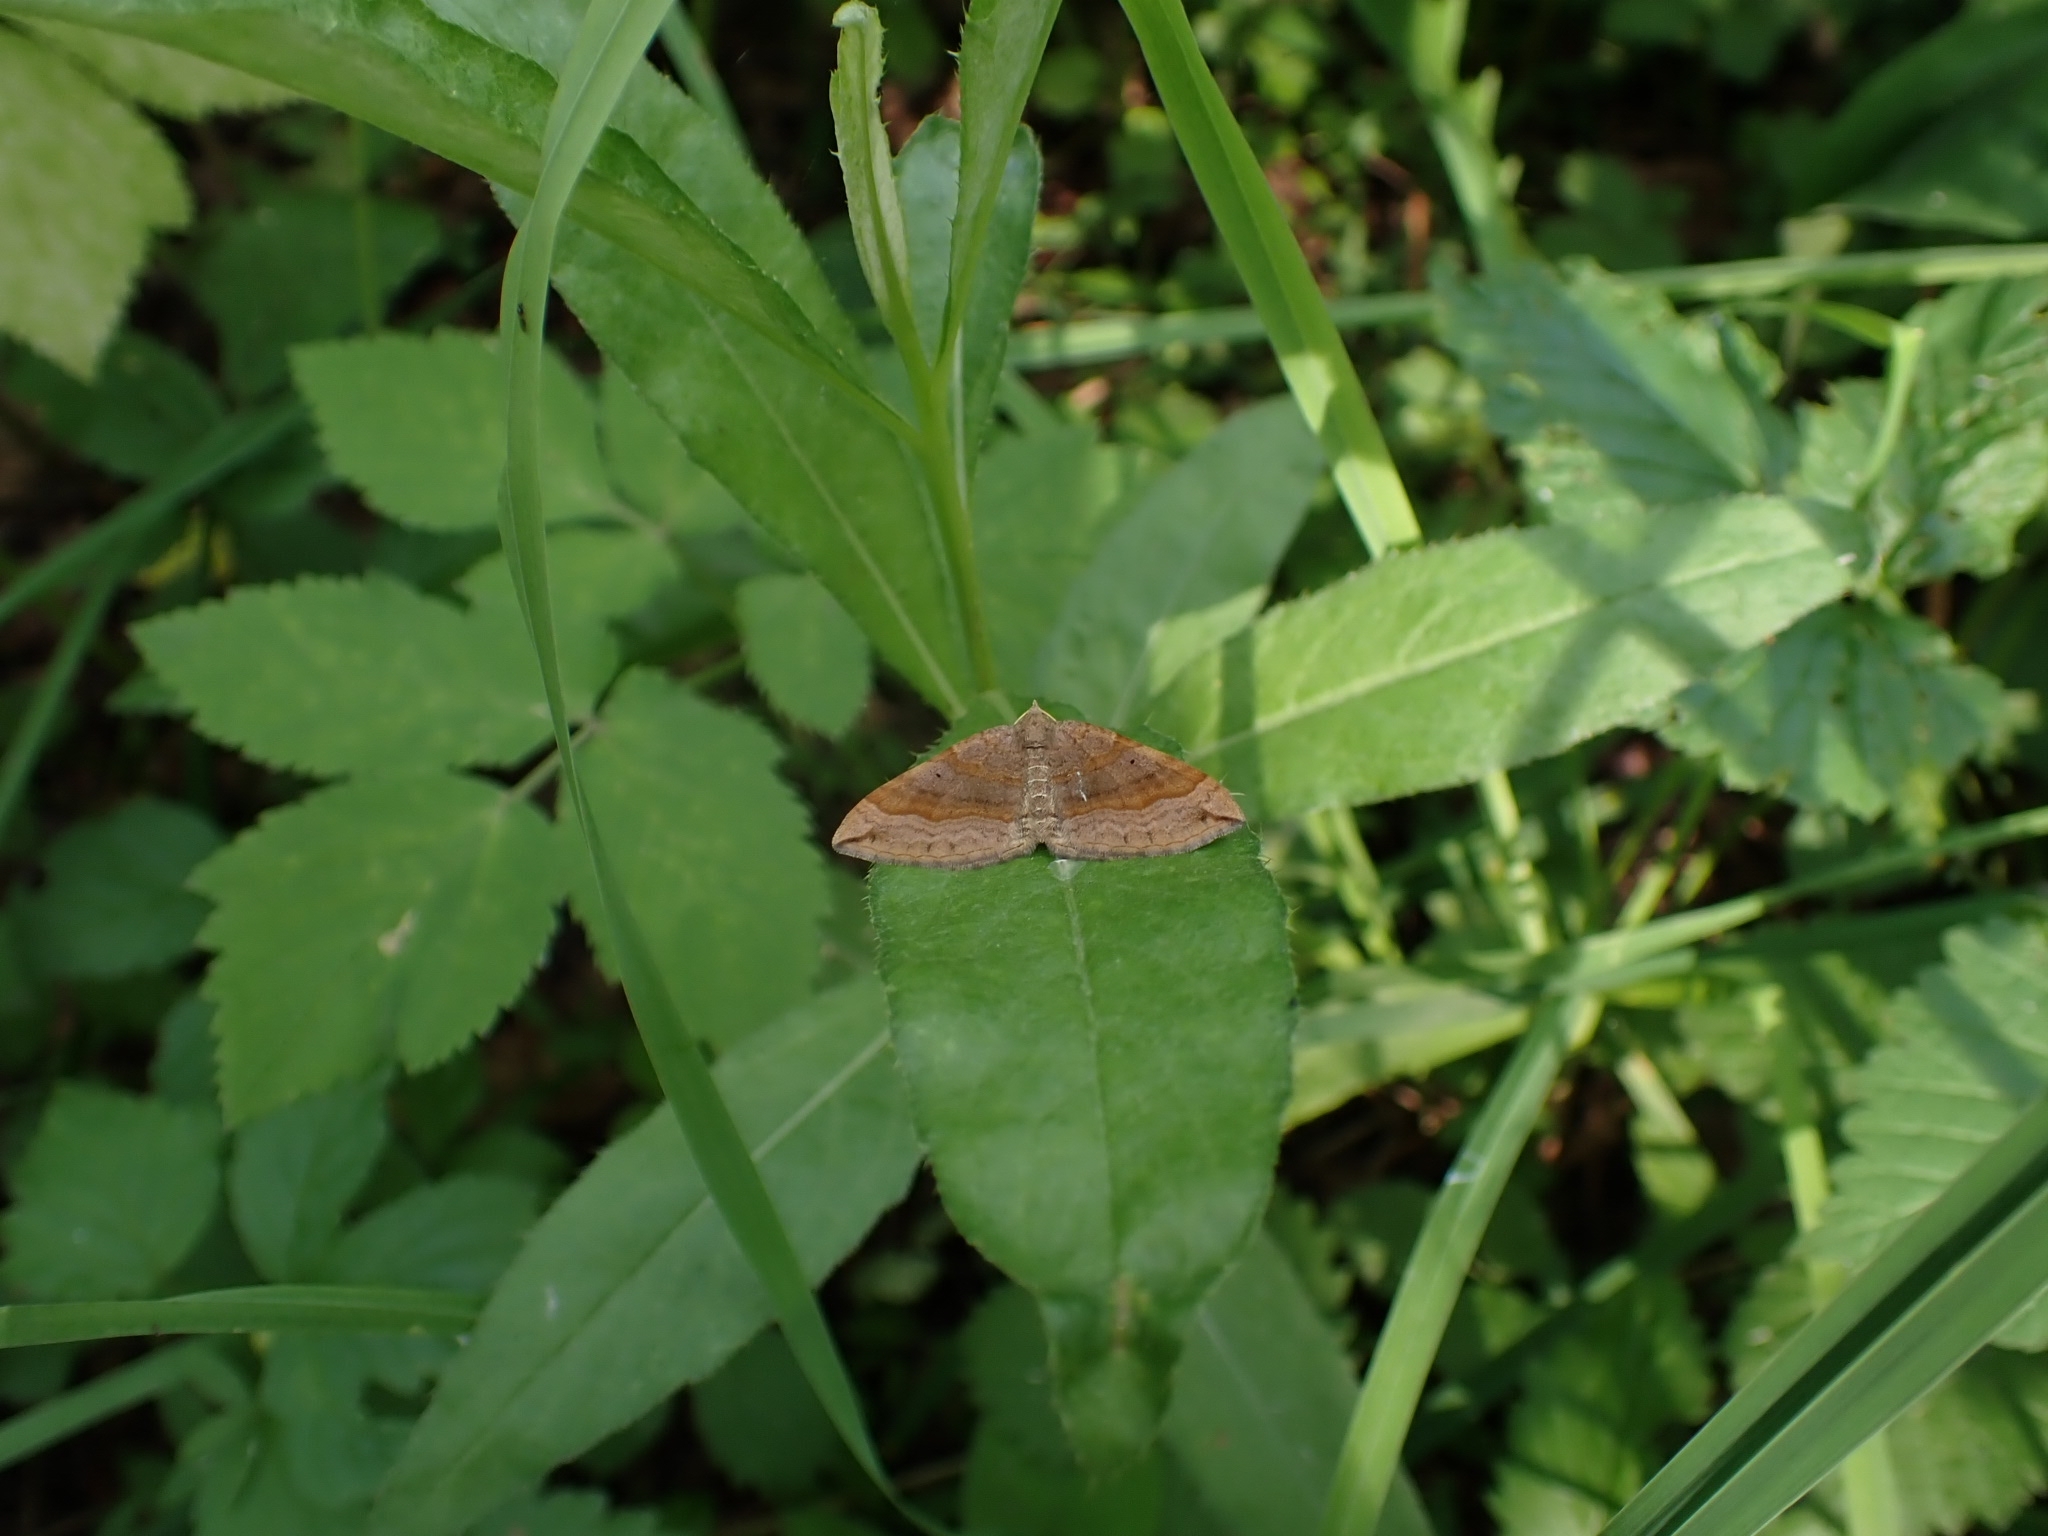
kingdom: Animalia
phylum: Arthropoda
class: Insecta
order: Lepidoptera
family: Geometridae
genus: Scotopteryx
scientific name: Scotopteryx chenopodiata
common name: Shaded broad-bar
